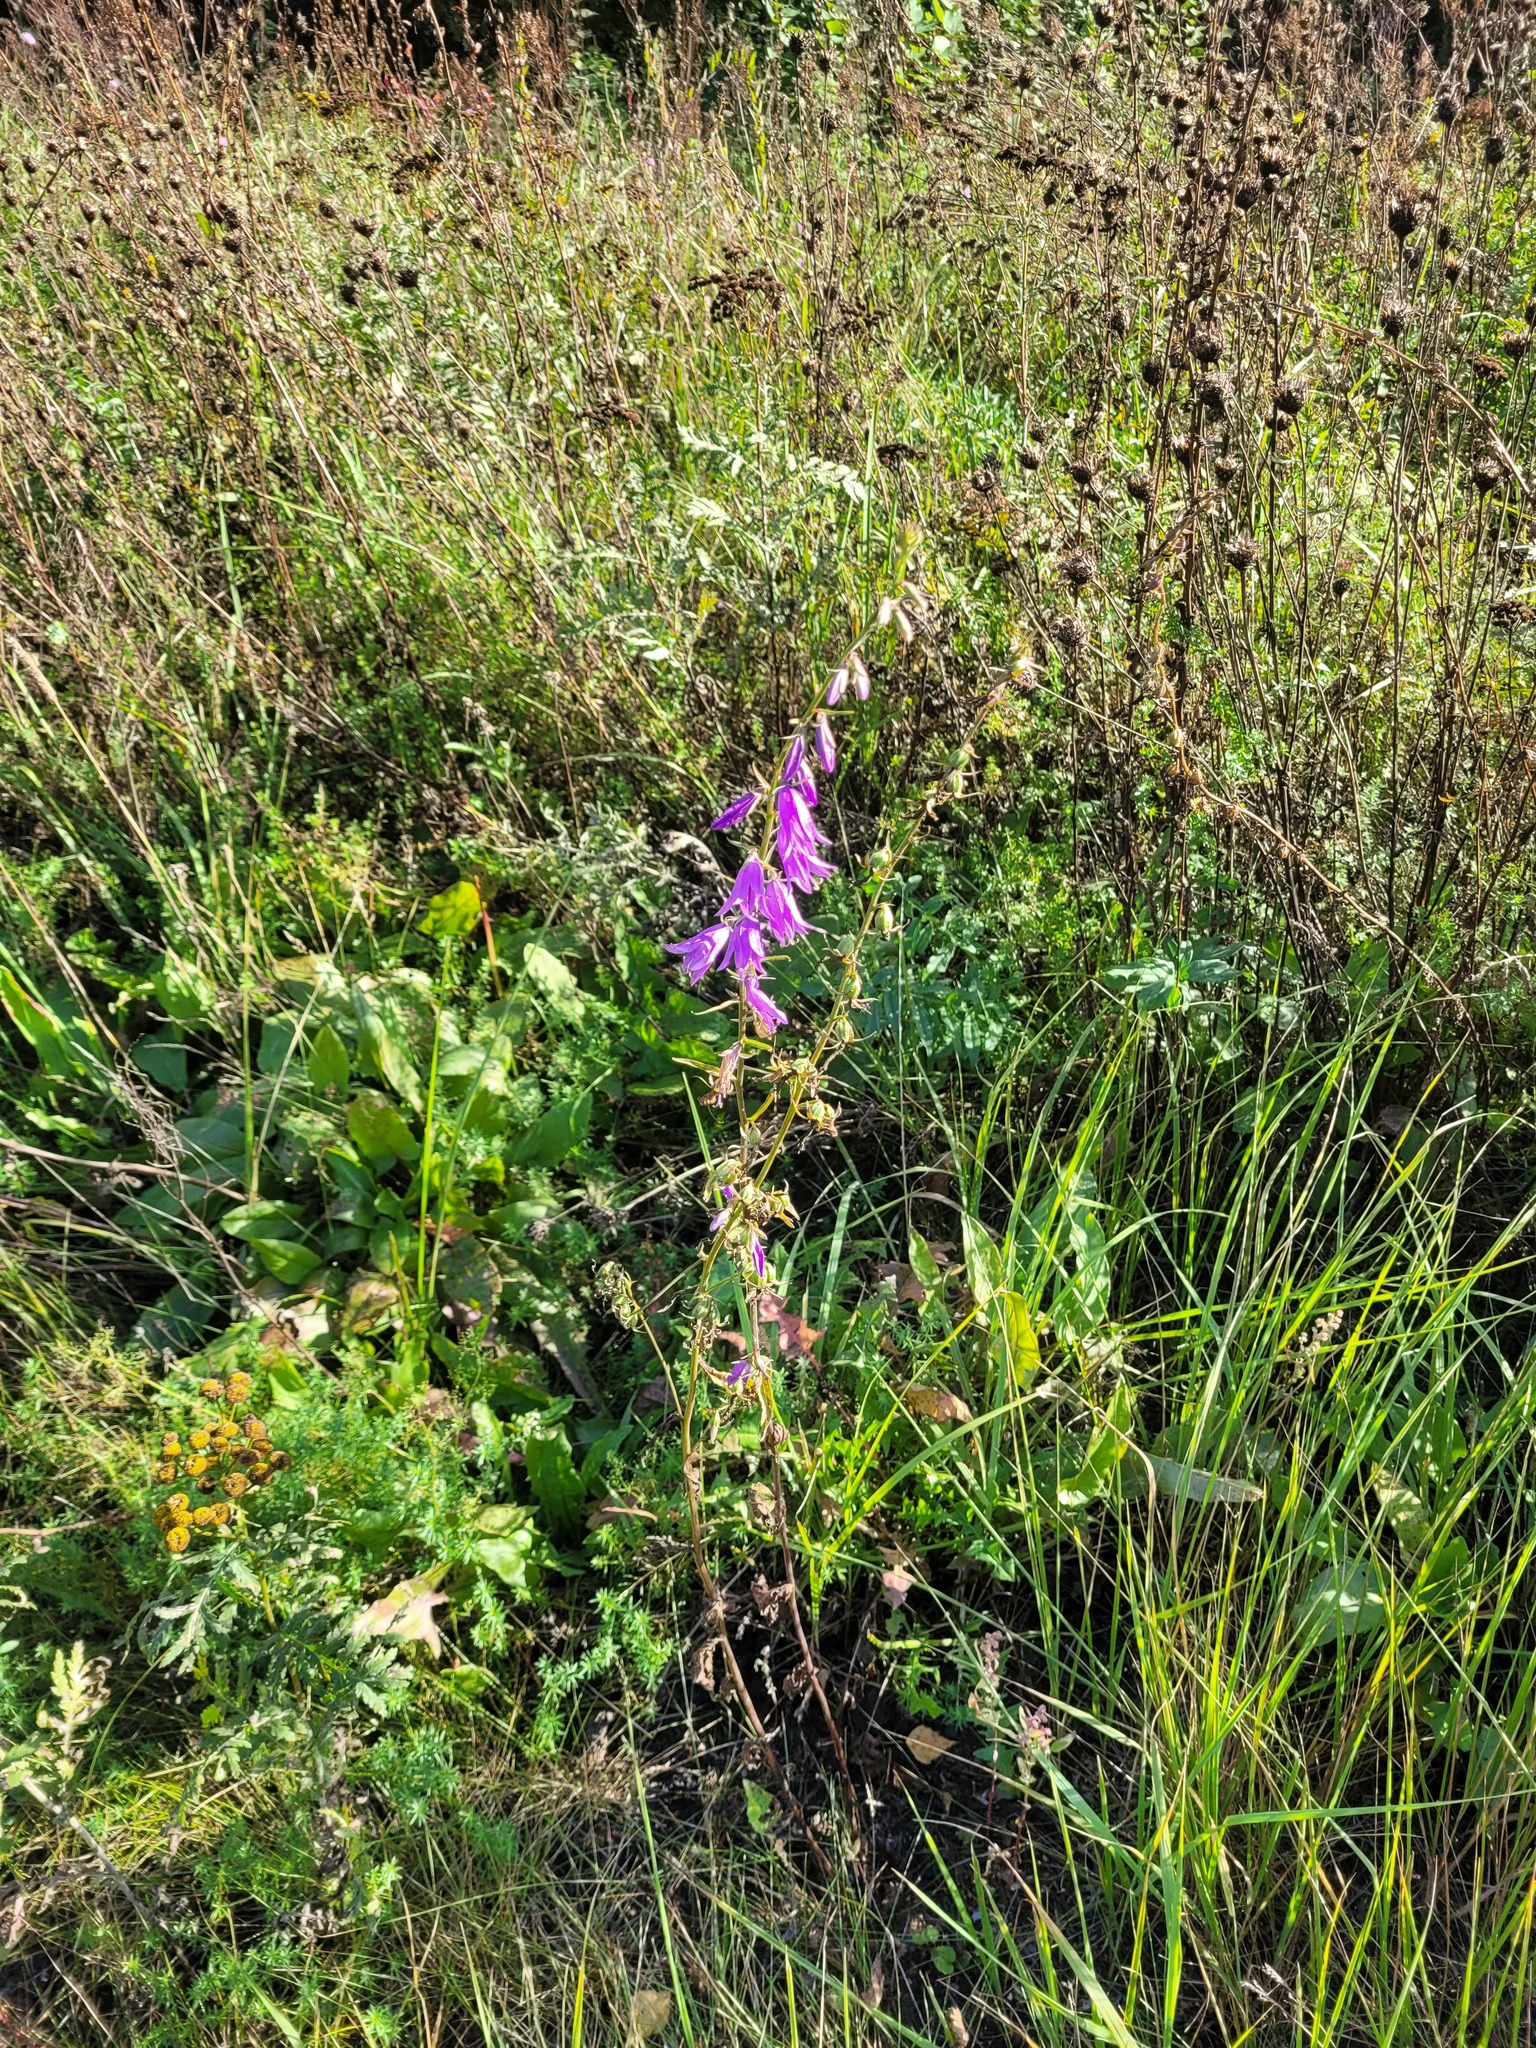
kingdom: Plantae
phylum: Tracheophyta
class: Magnoliopsida
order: Asterales
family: Campanulaceae
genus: Campanula
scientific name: Campanula rapunculoides
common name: Creeping bellflower
